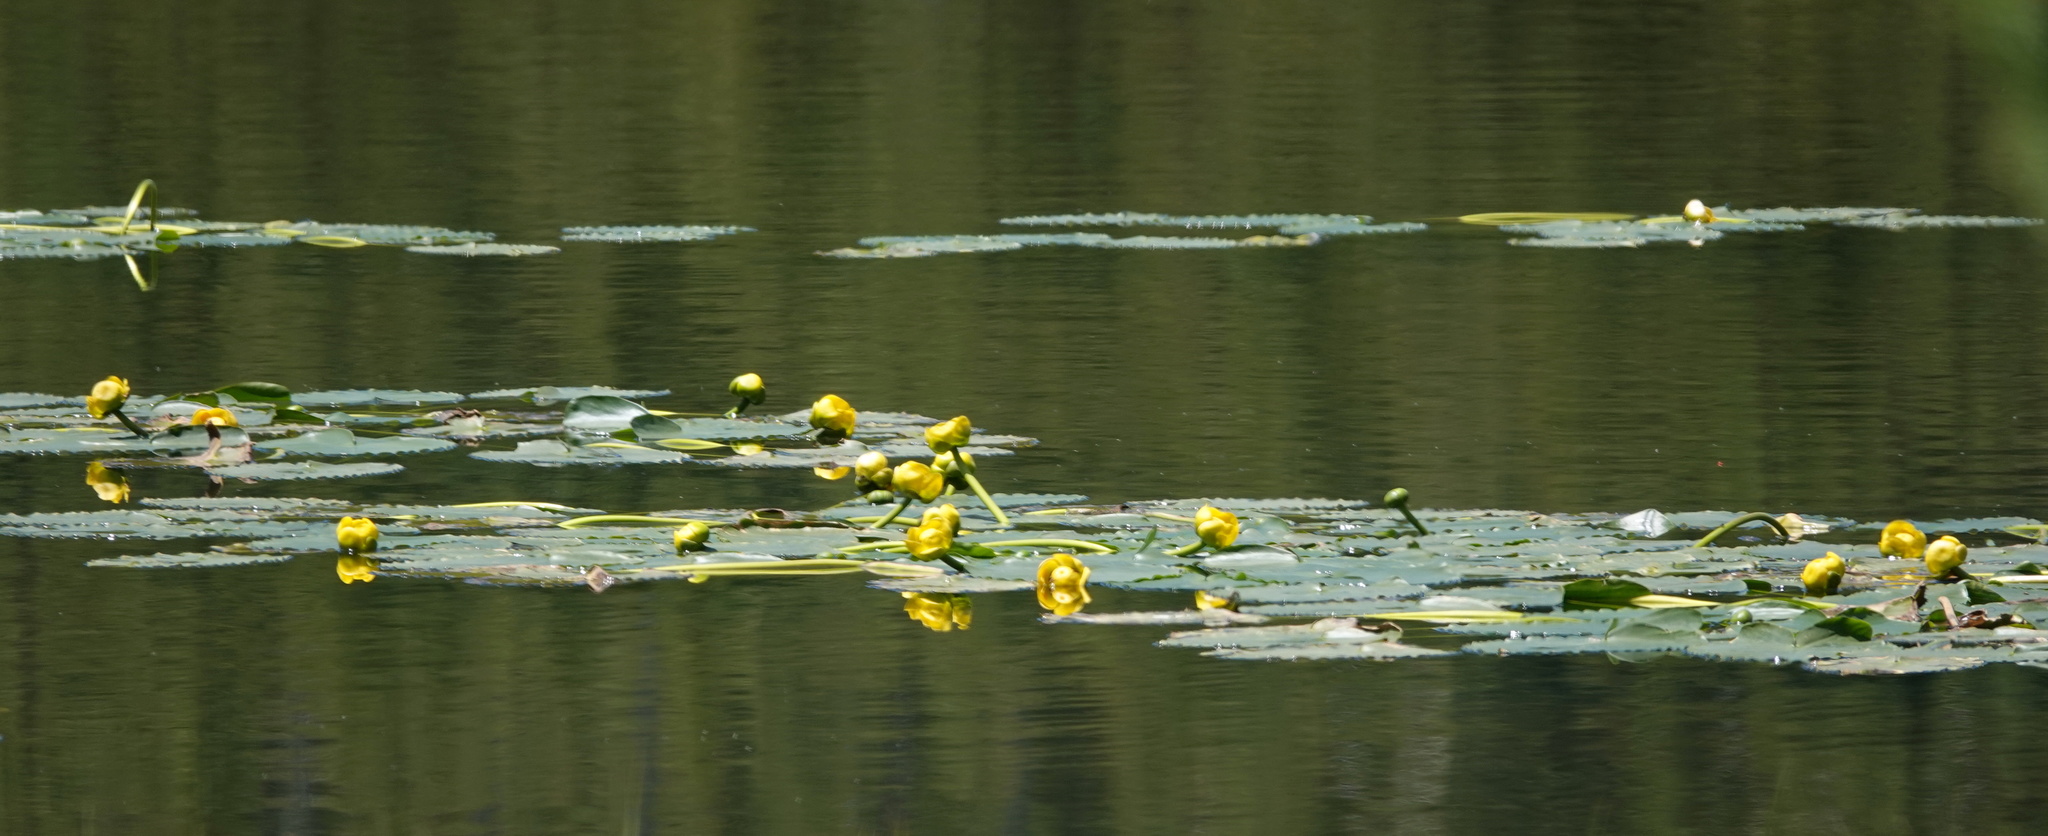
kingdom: Plantae
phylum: Tracheophyta
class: Magnoliopsida
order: Nymphaeales
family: Nymphaeaceae
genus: Nuphar
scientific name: Nuphar polysepala
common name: Rocky mountain cow-lily
